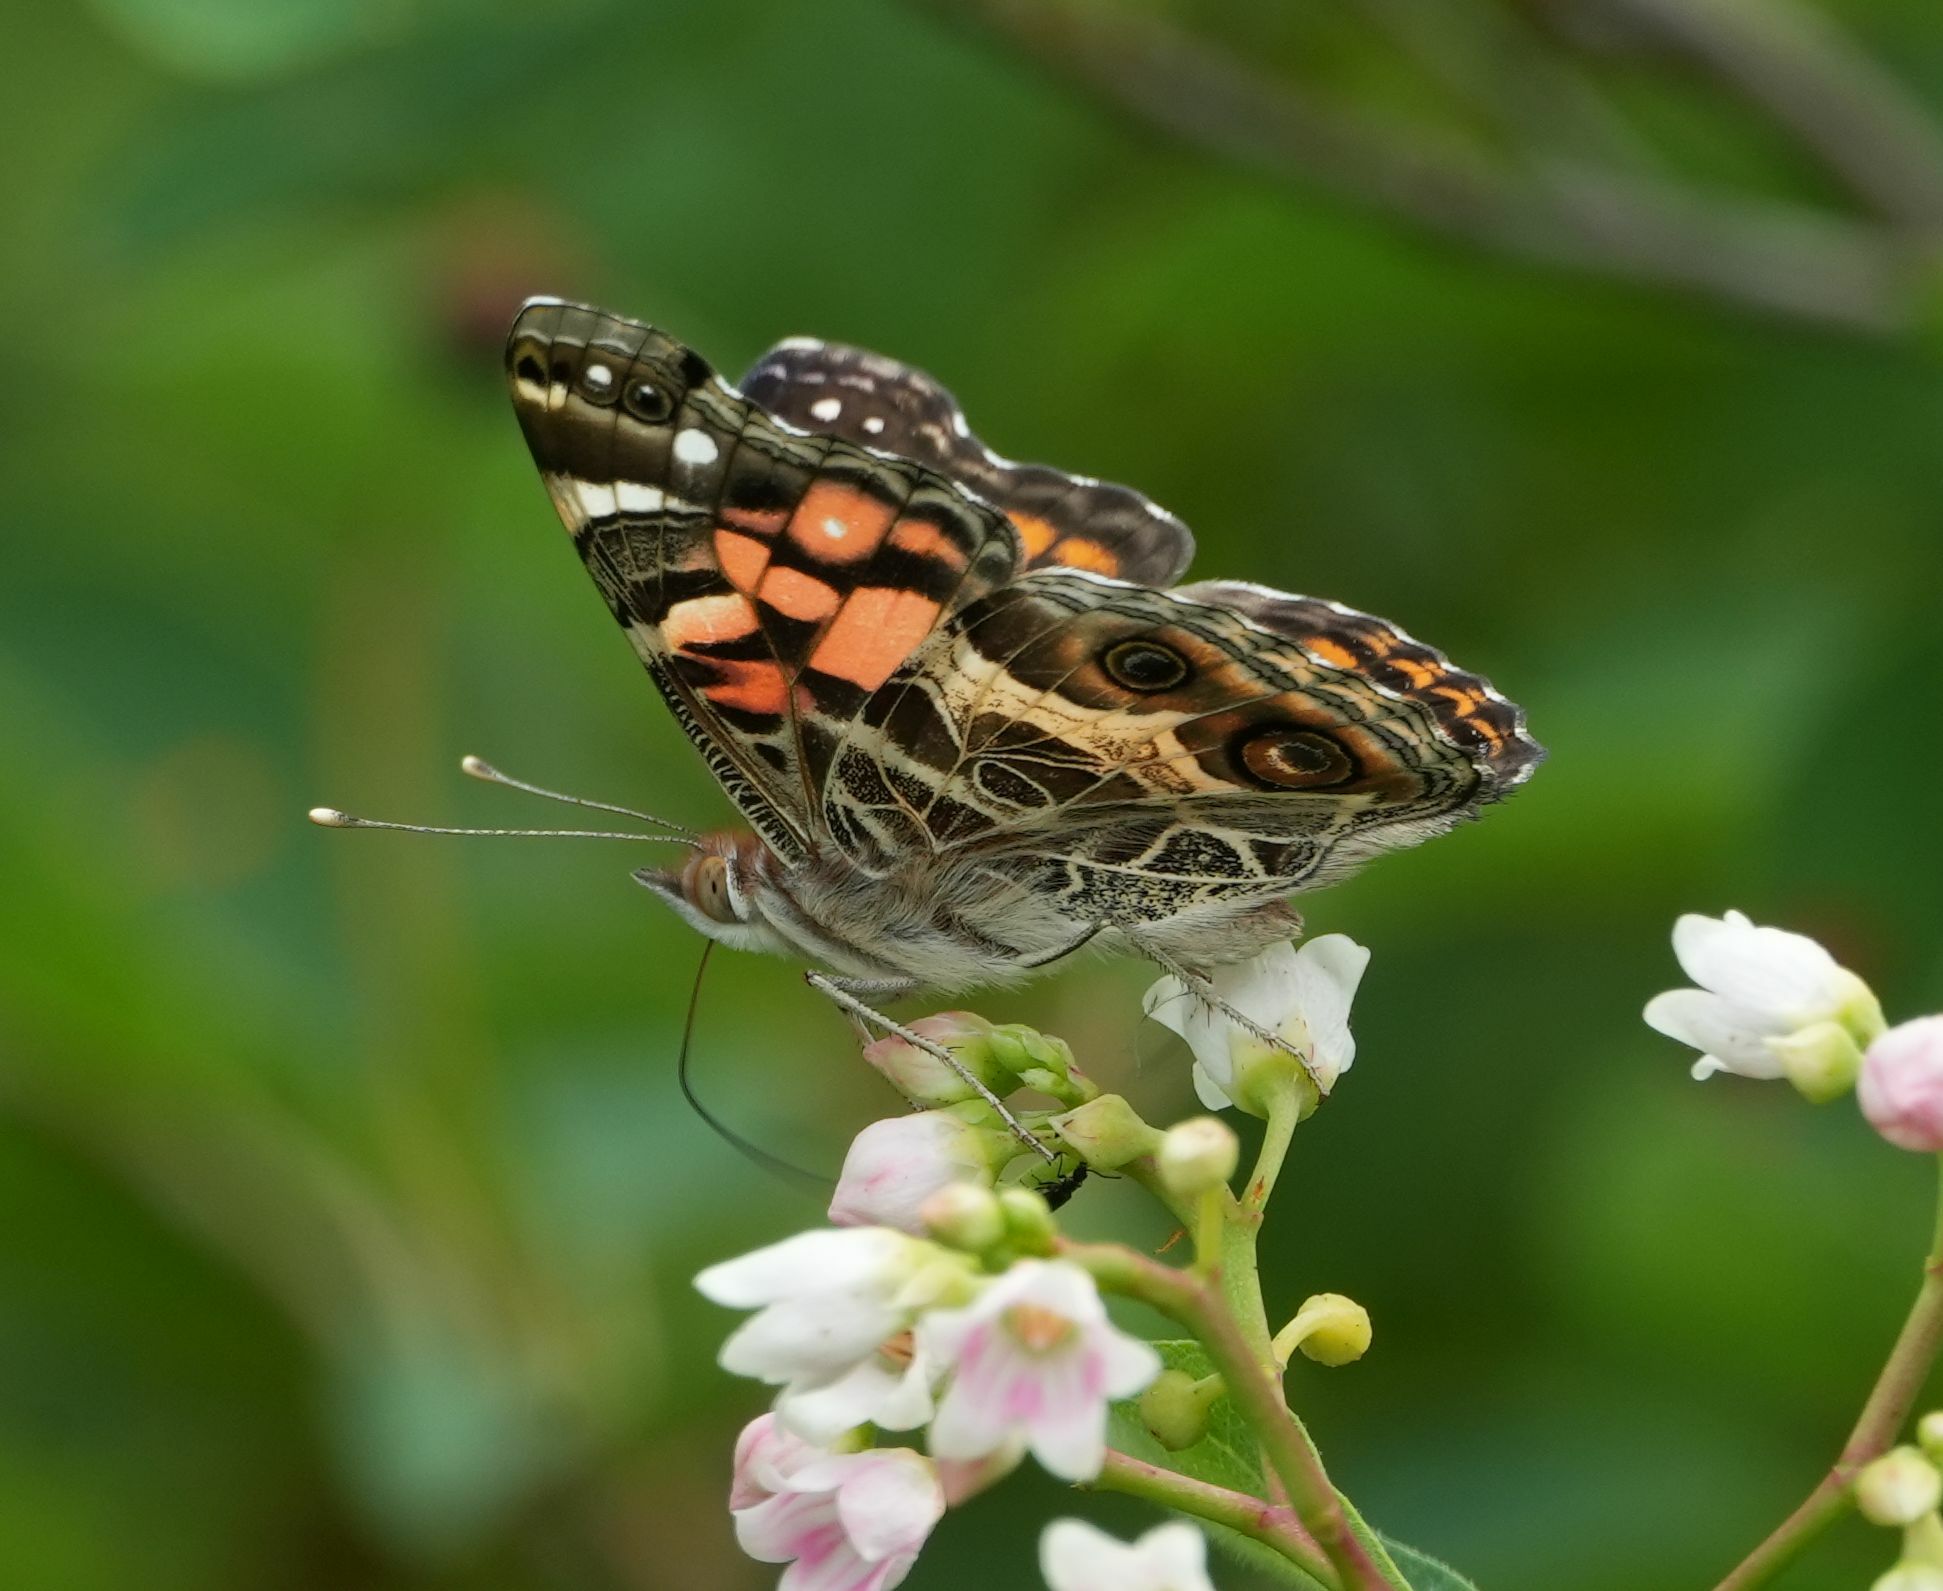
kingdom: Animalia
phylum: Arthropoda
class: Insecta
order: Lepidoptera
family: Nymphalidae
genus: Vanessa
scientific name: Vanessa virginiensis
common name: American lady
